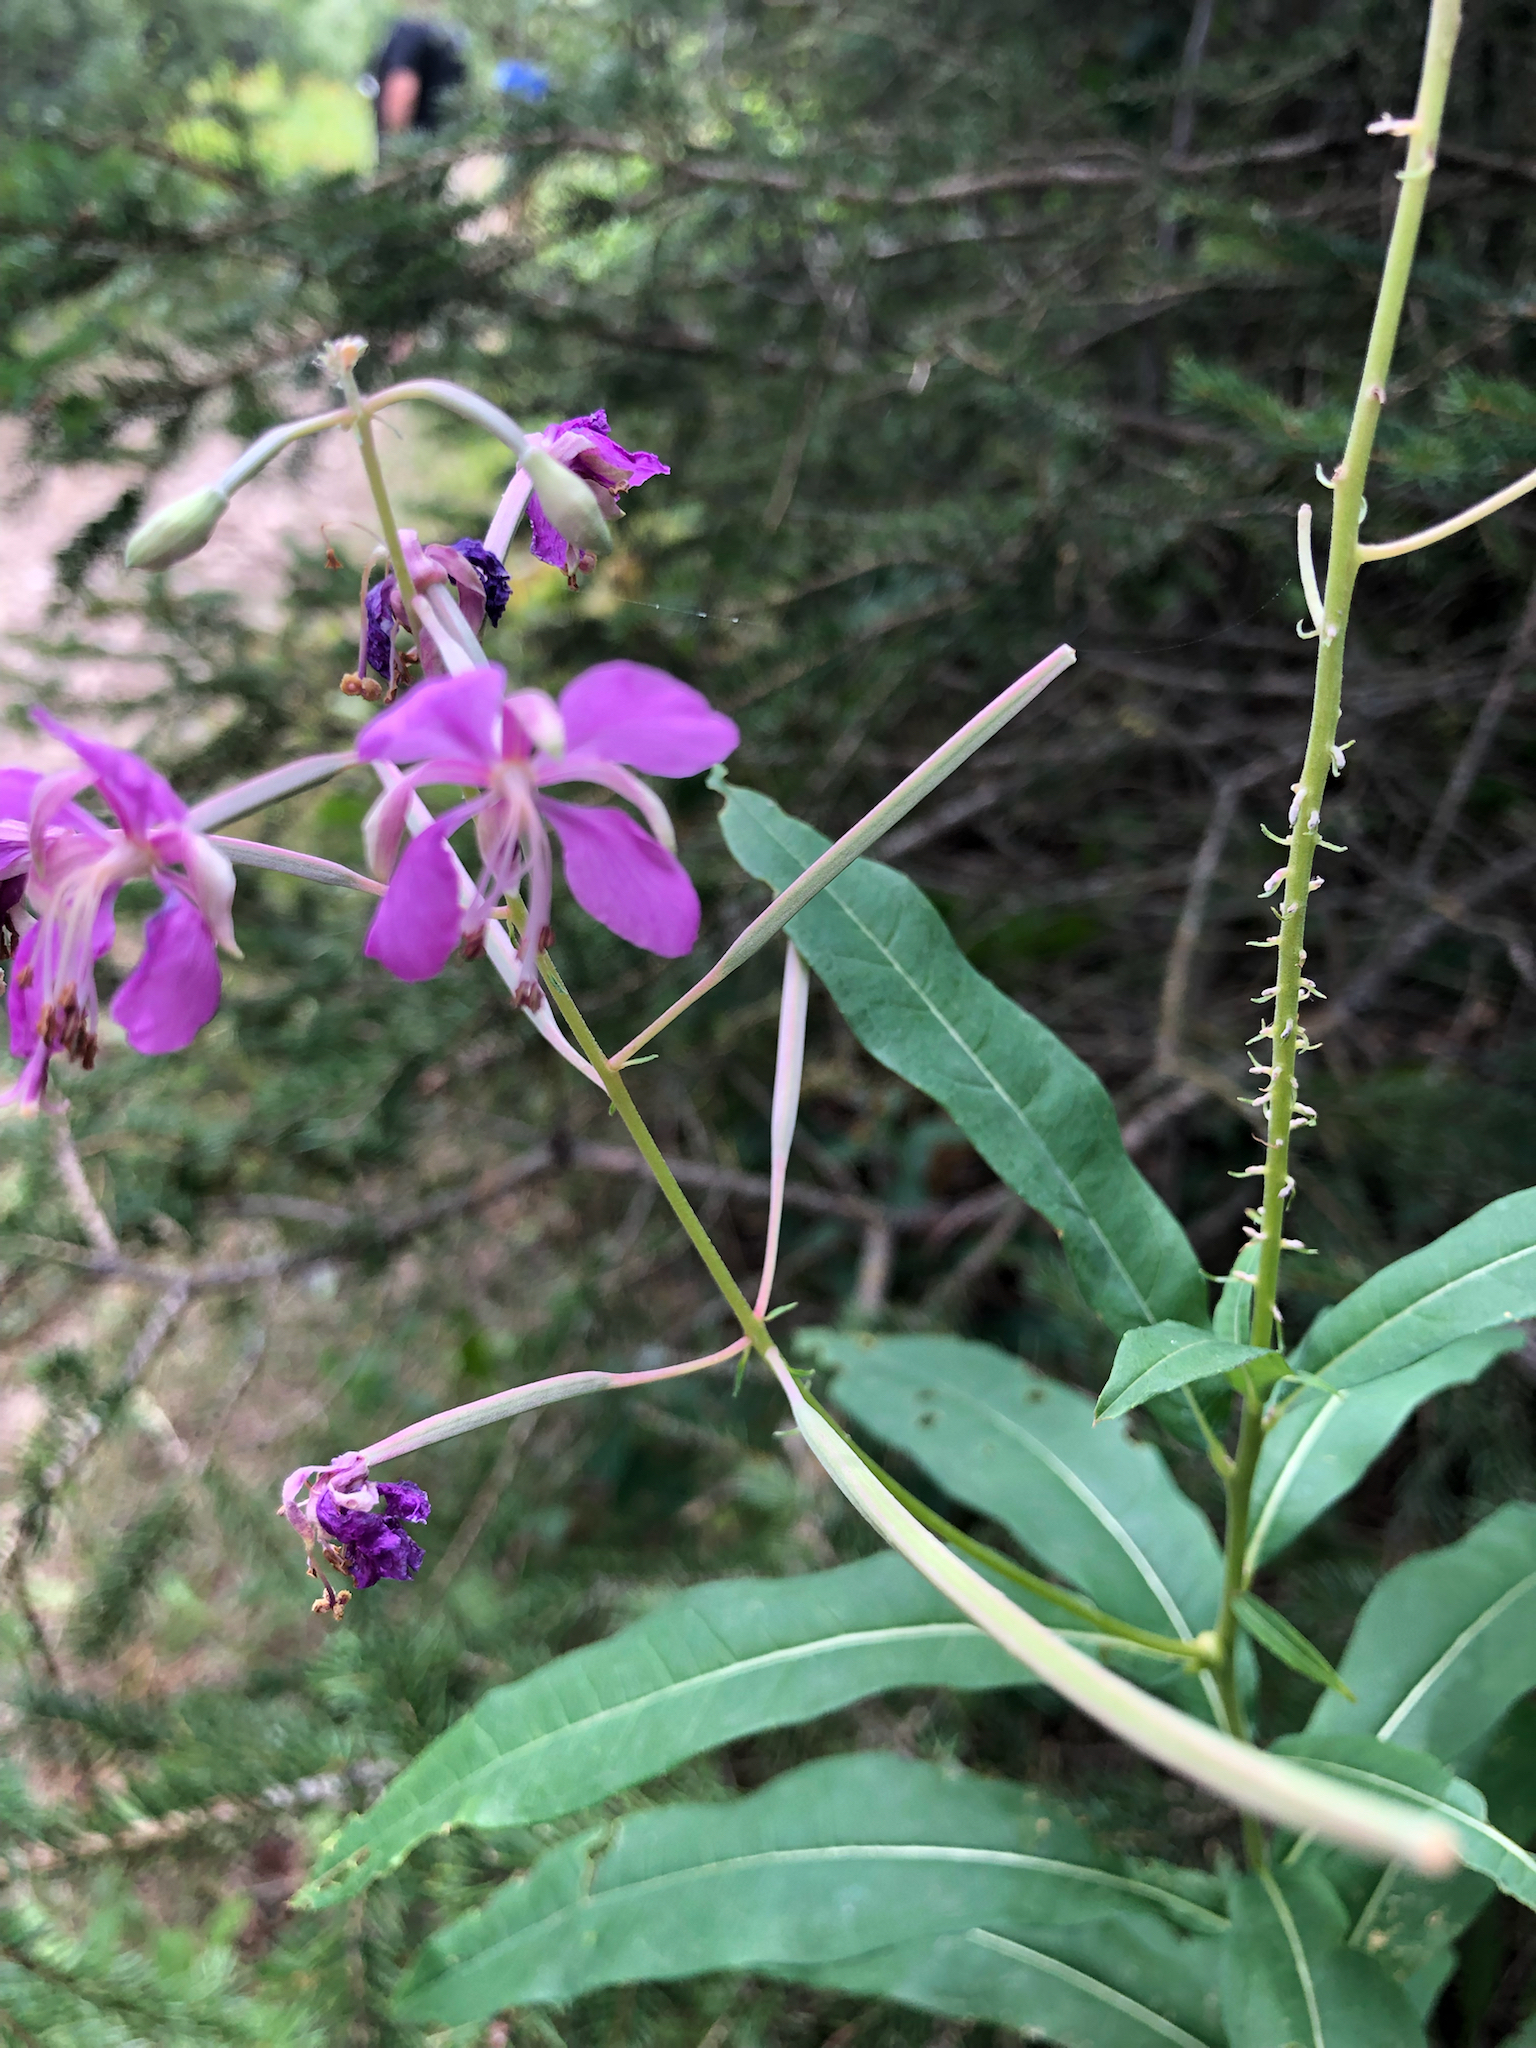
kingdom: Plantae
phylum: Tracheophyta
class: Magnoliopsida
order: Myrtales
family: Onagraceae
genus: Chamaenerion
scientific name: Chamaenerion angustifolium
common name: Fireweed
